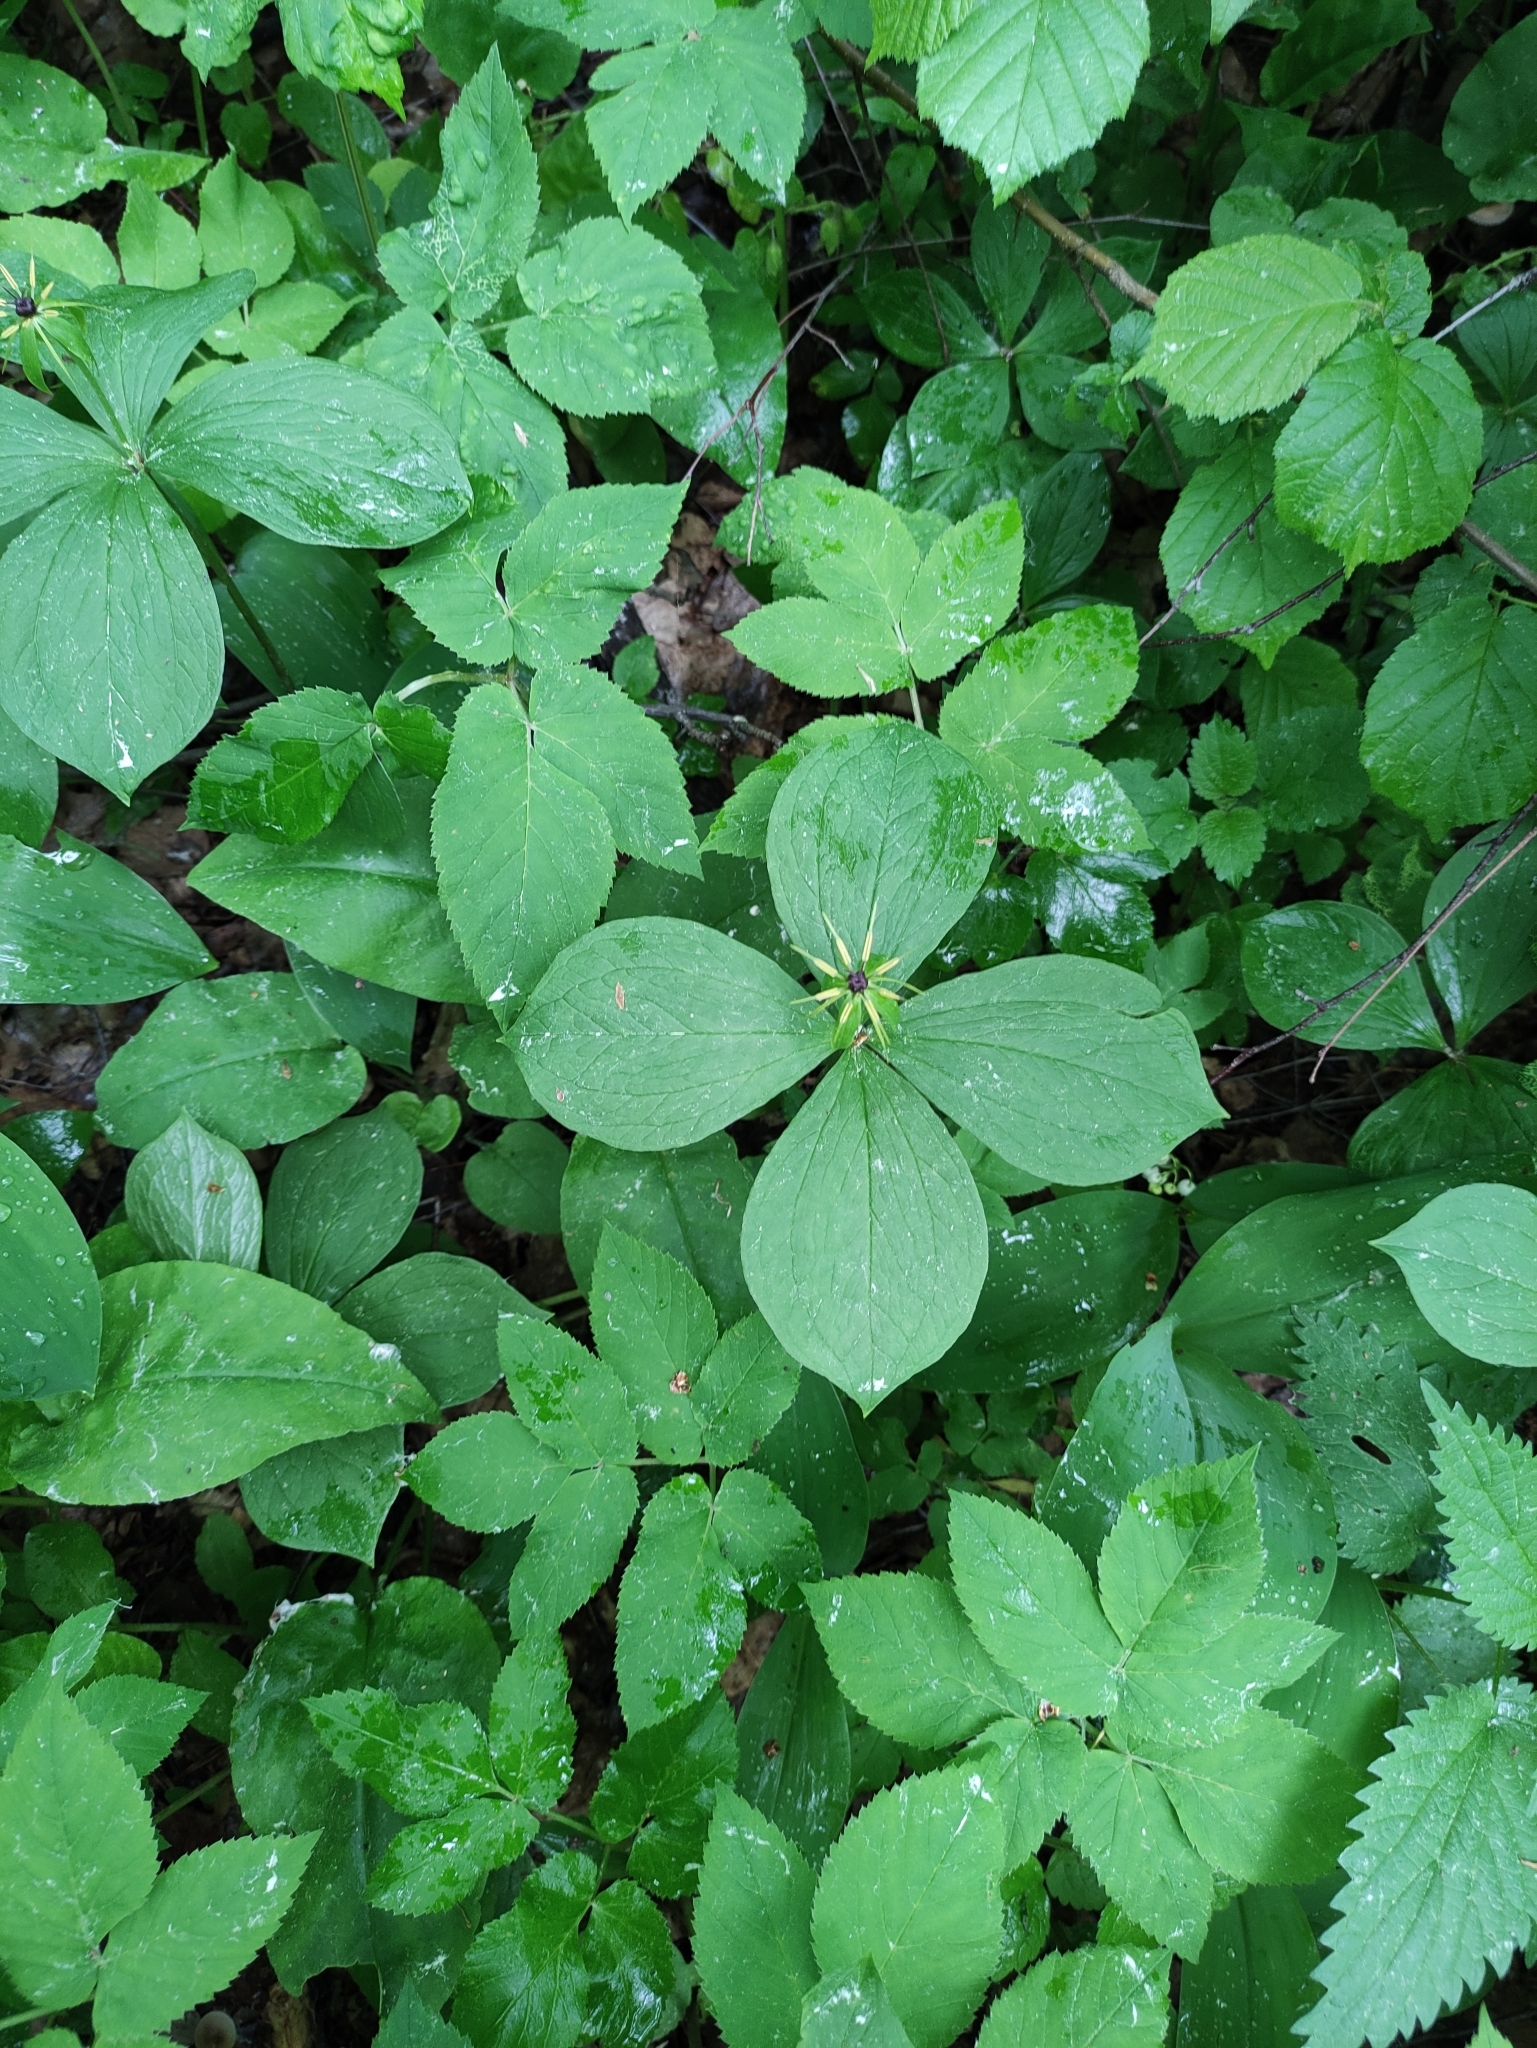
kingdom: Plantae
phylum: Tracheophyta
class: Liliopsida
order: Liliales
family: Melanthiaceae
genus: Paris
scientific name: Paris quadrifolia
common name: Herb-paris
